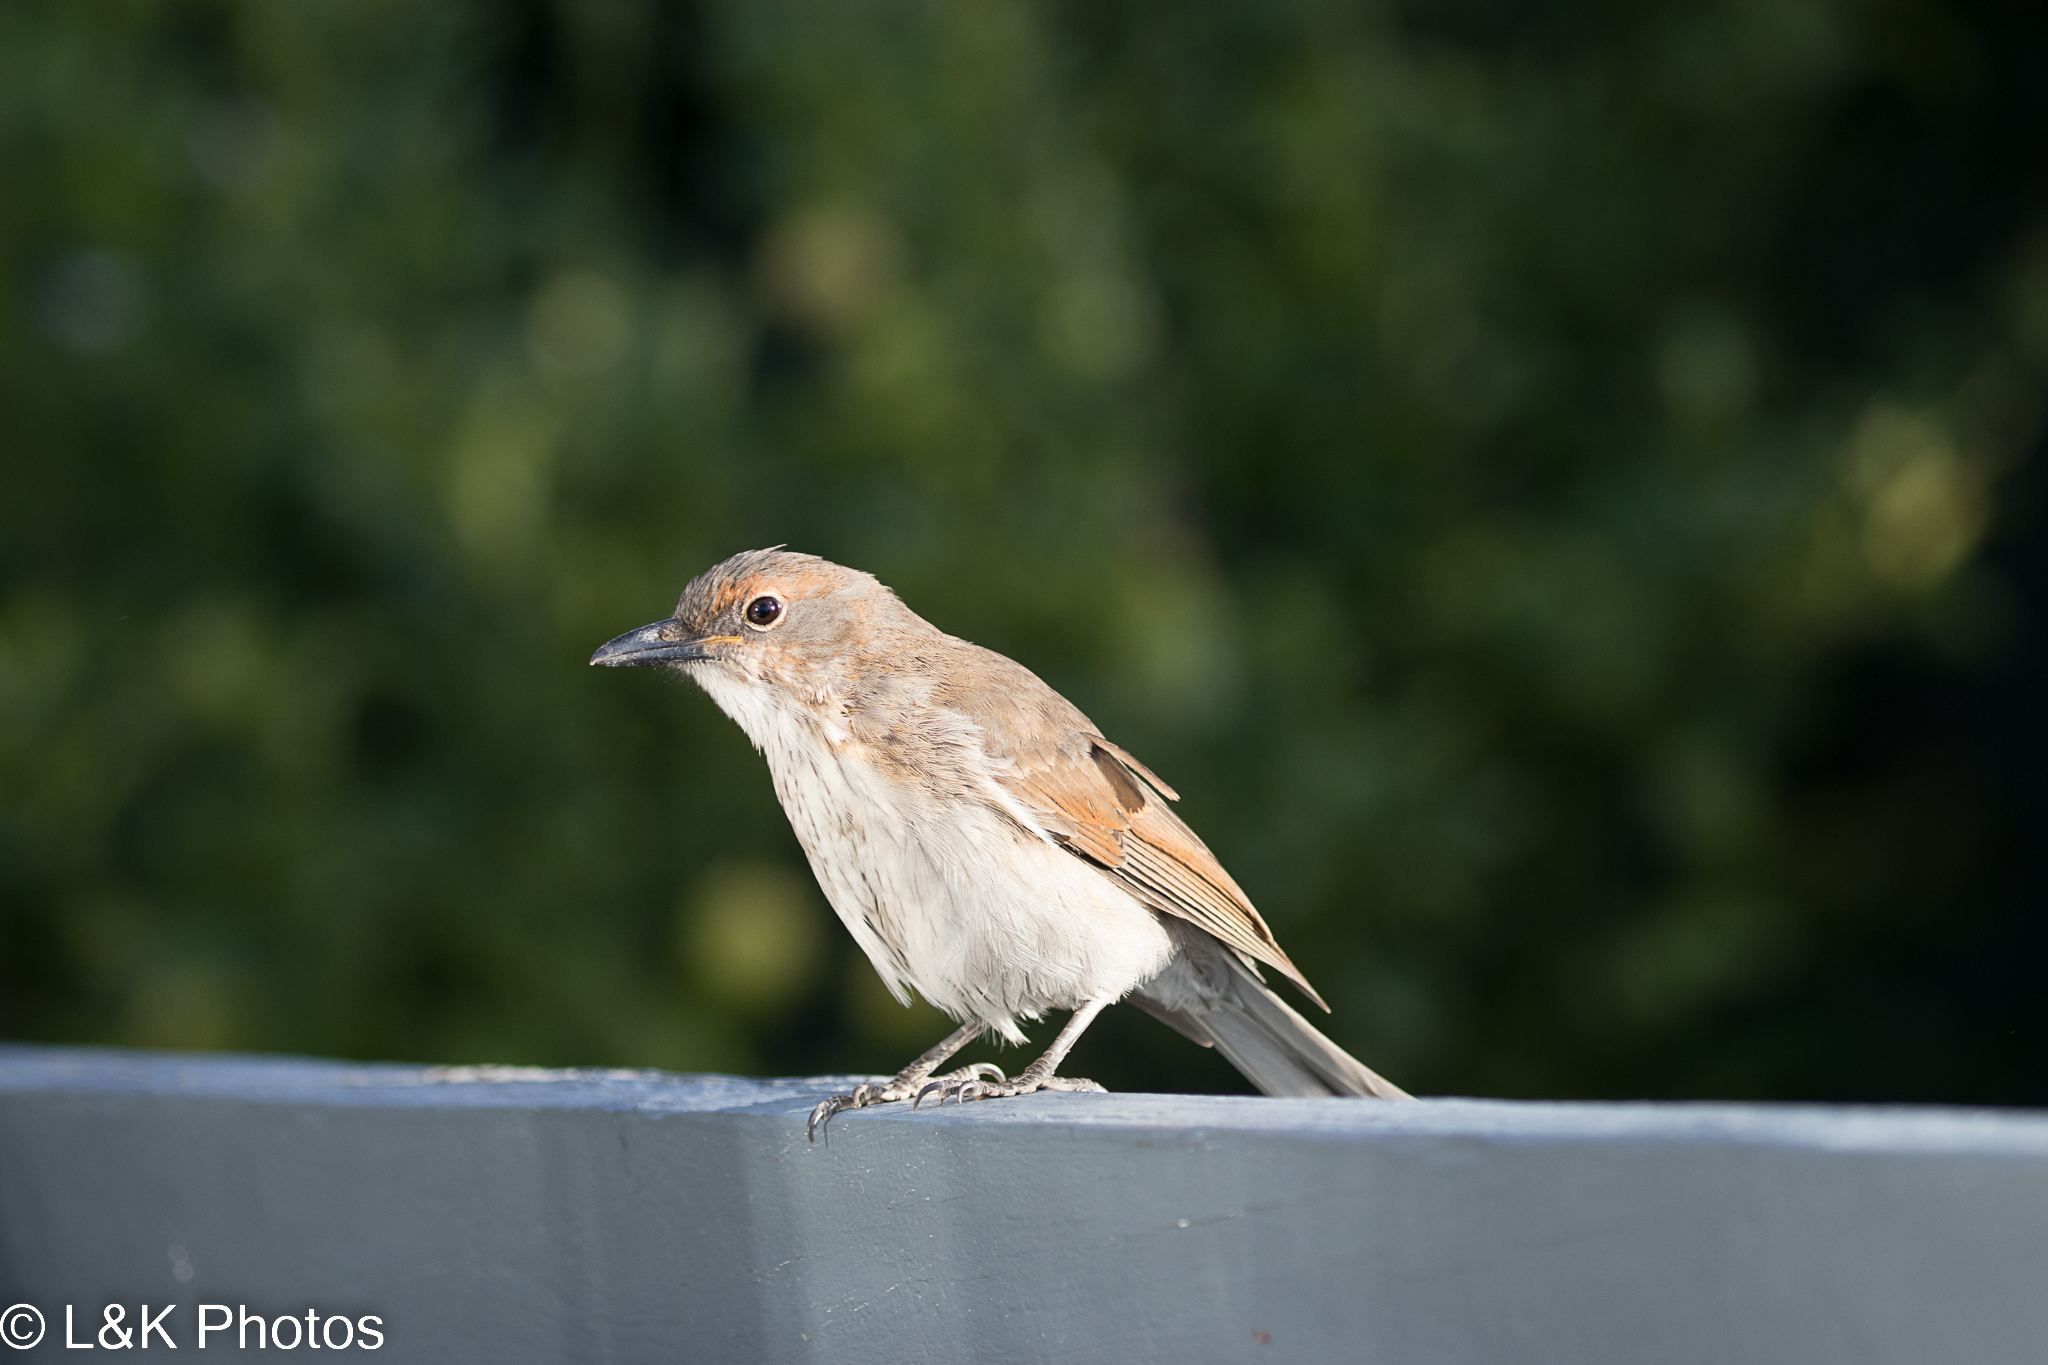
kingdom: Animalia
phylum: Chordata
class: Aves
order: Passeriformes
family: Pachycephalidae
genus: Colluricincla
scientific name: Colluricincla harmonica
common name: Grey shrikethrush
